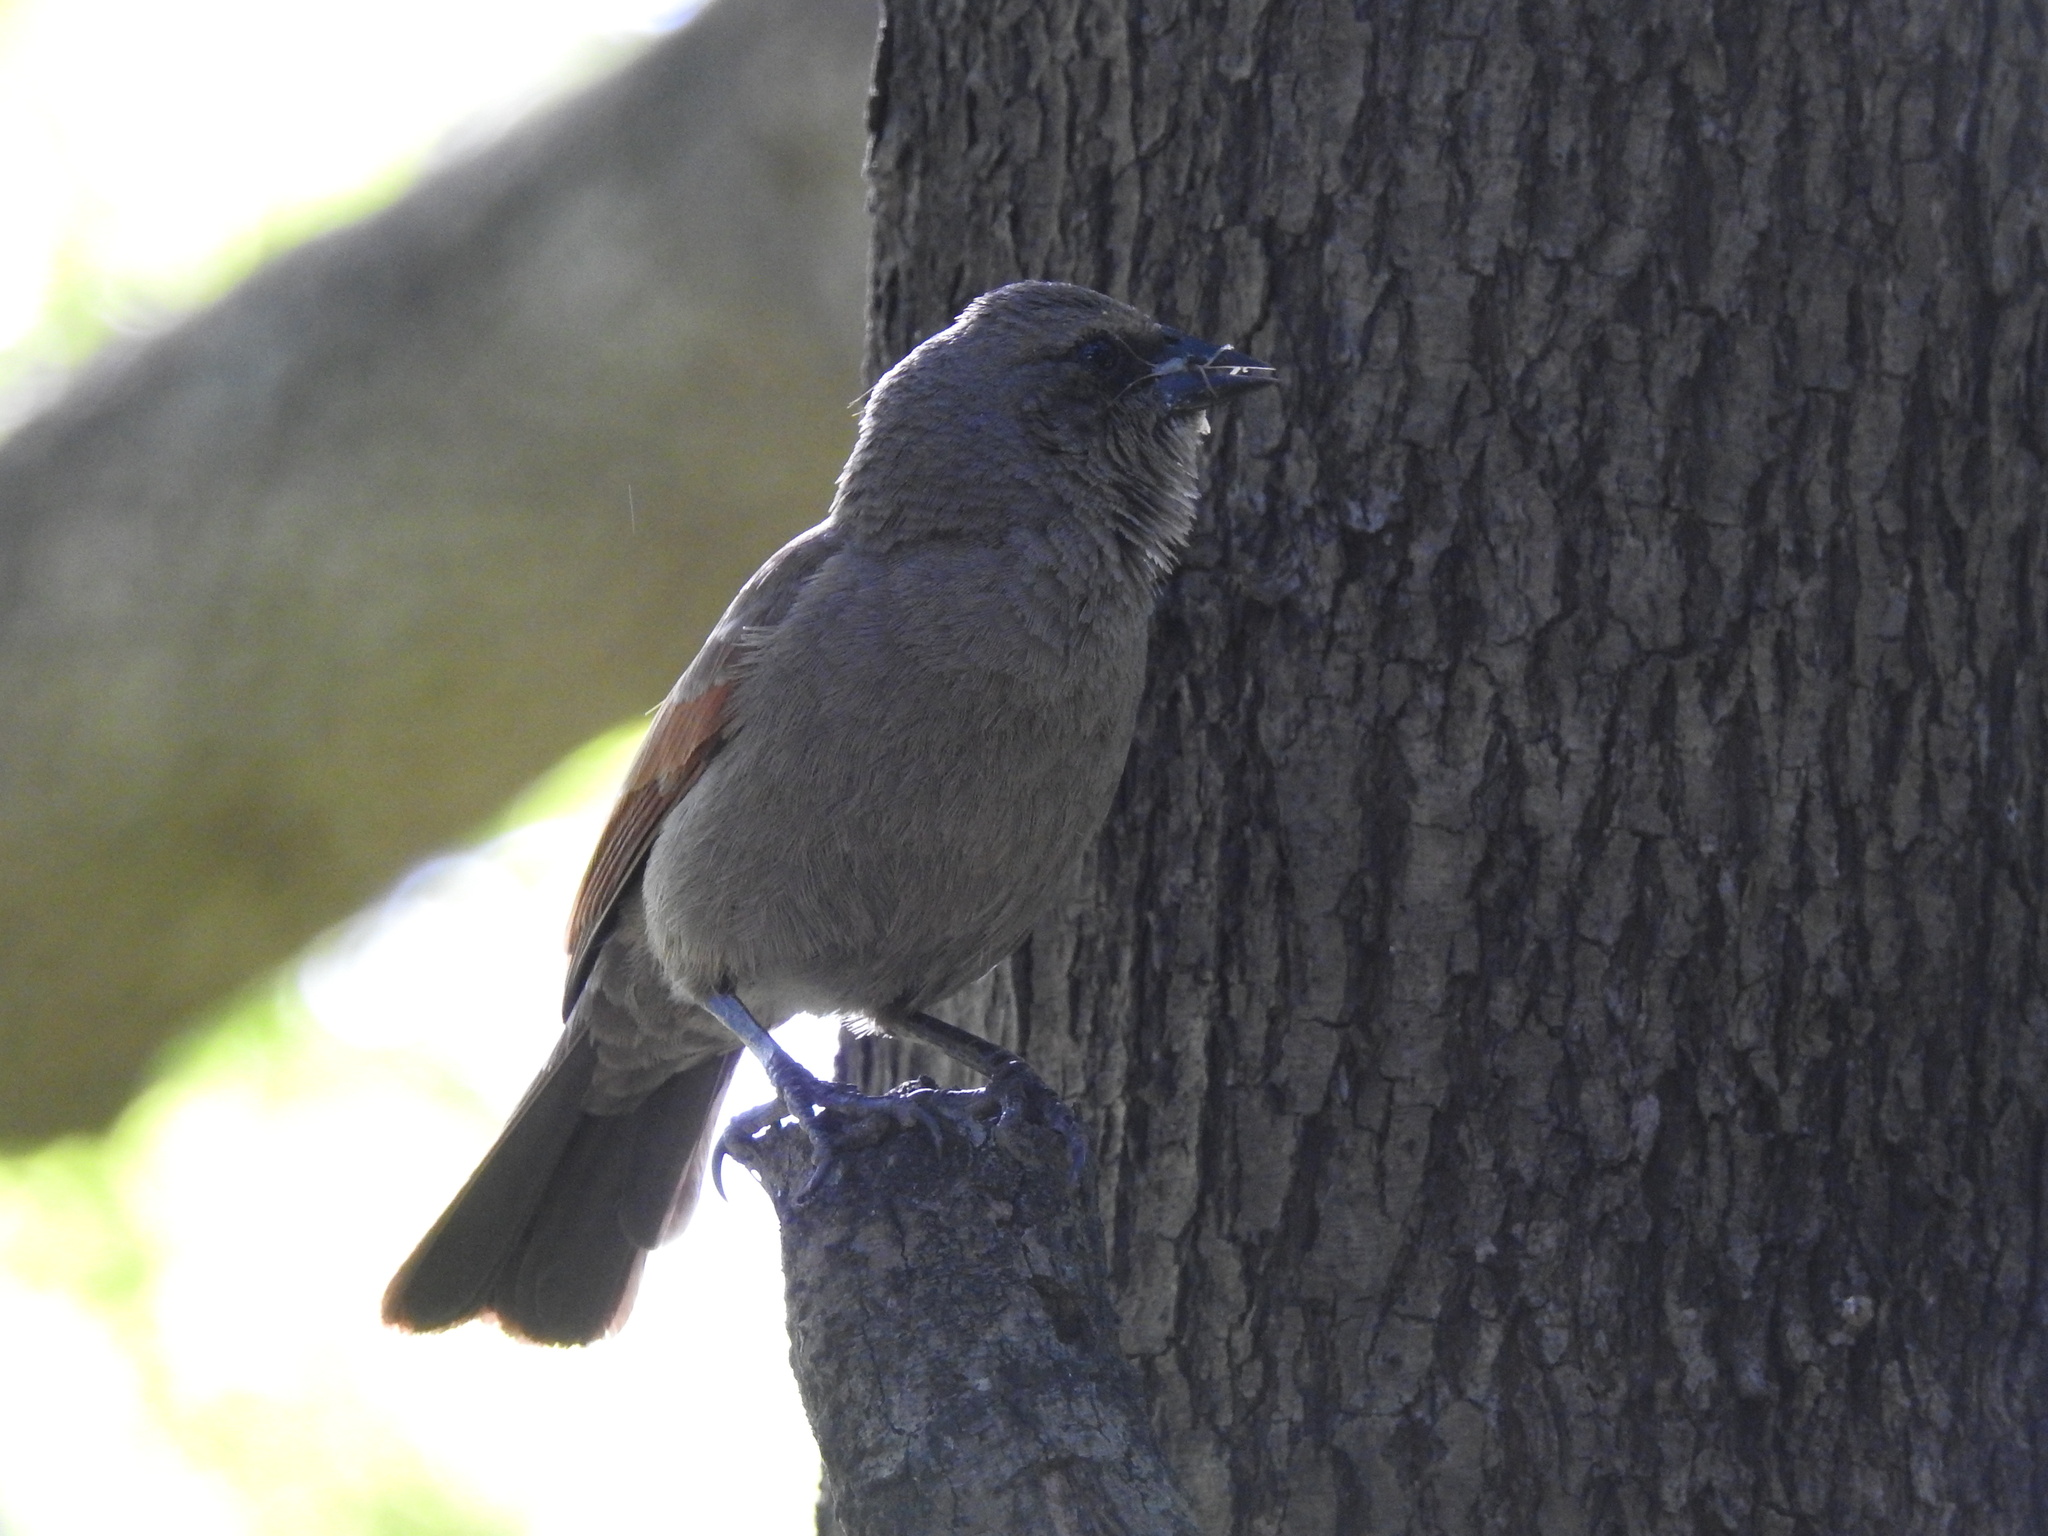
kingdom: Animalia
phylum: Chordata
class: Aves
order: Passeriformes
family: Icteridae
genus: Agelaioides
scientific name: Agelaioides badius
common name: Baywing
